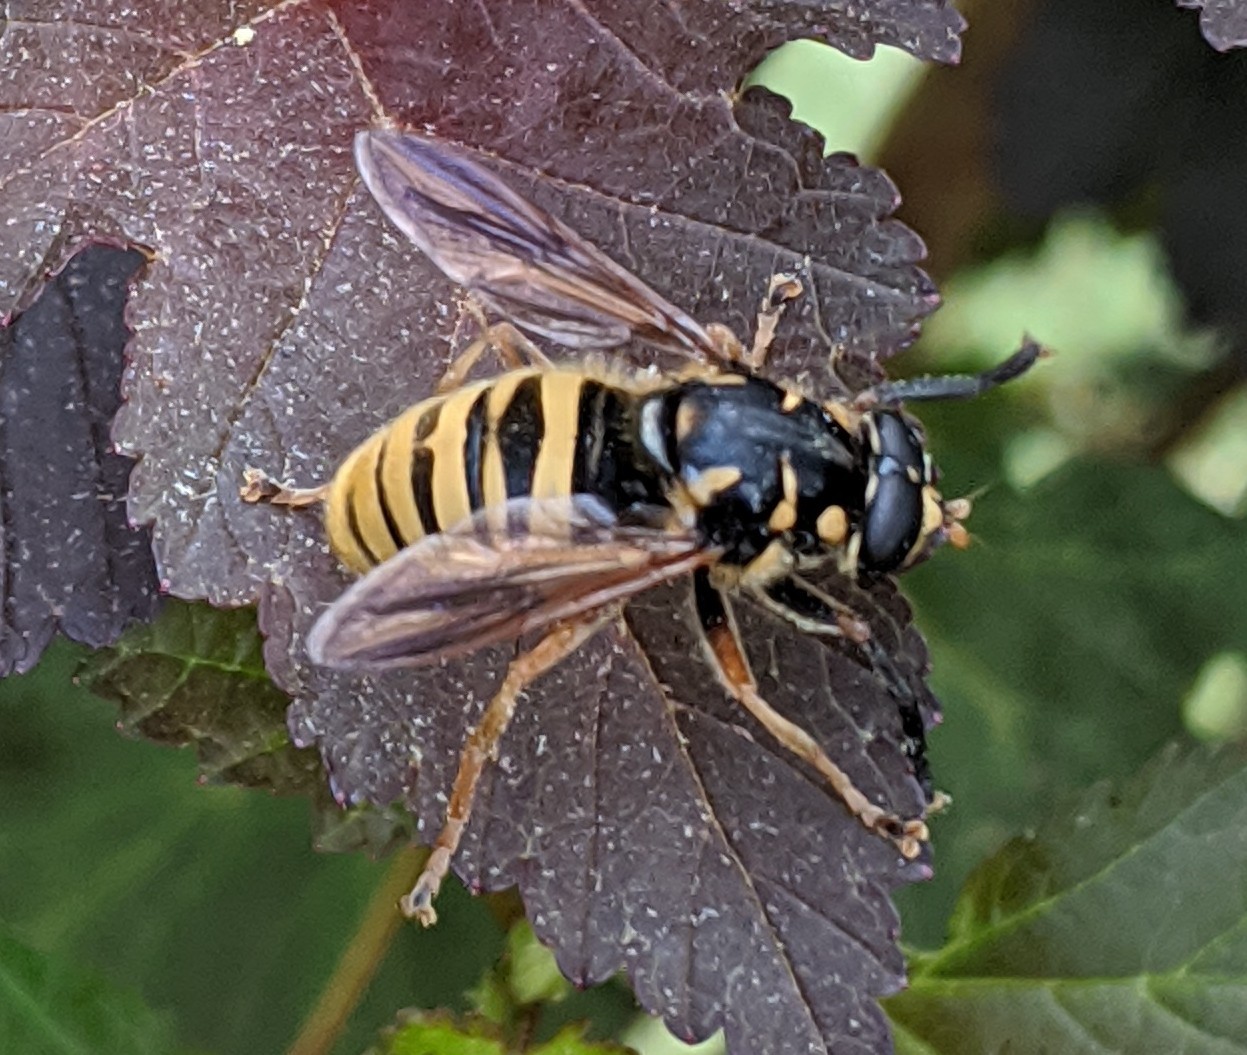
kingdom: Animalia
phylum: Arthropoda
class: Insecta
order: Diptera
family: Syrphidae
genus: Temnostoma
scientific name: Temnostoma vespiforme
